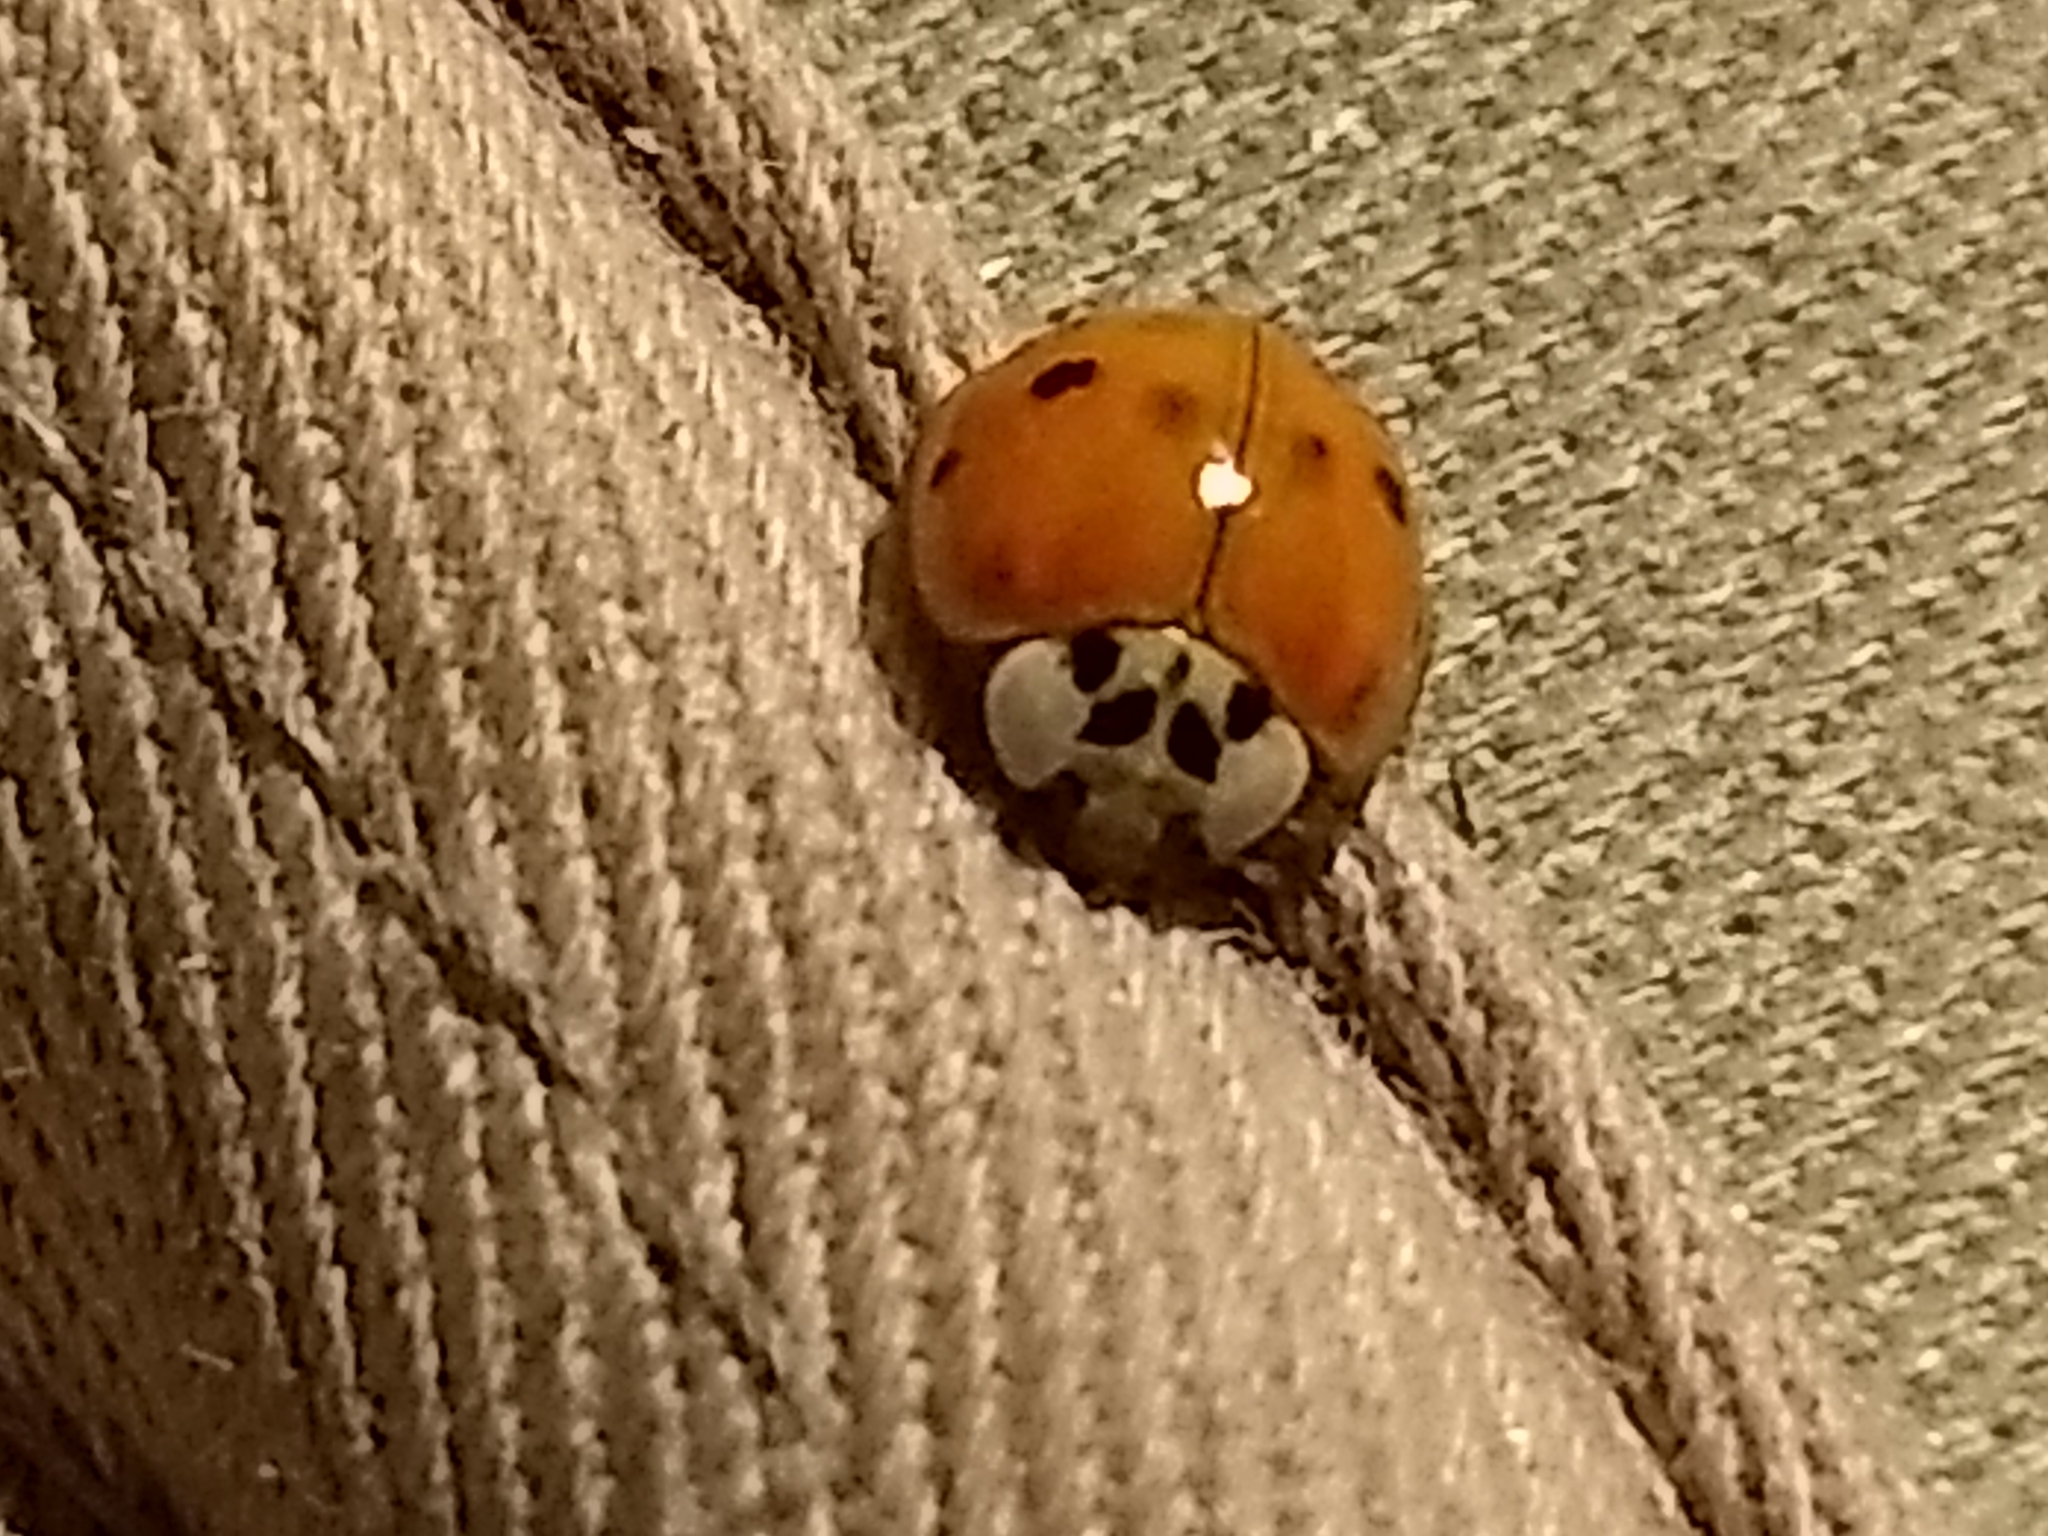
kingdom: Animalia
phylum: Arthropoda
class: Insecta
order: Coleoptera
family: Coccinellidae
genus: Harmonia
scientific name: Harmonia axyridis
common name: Harlequin ladybird
